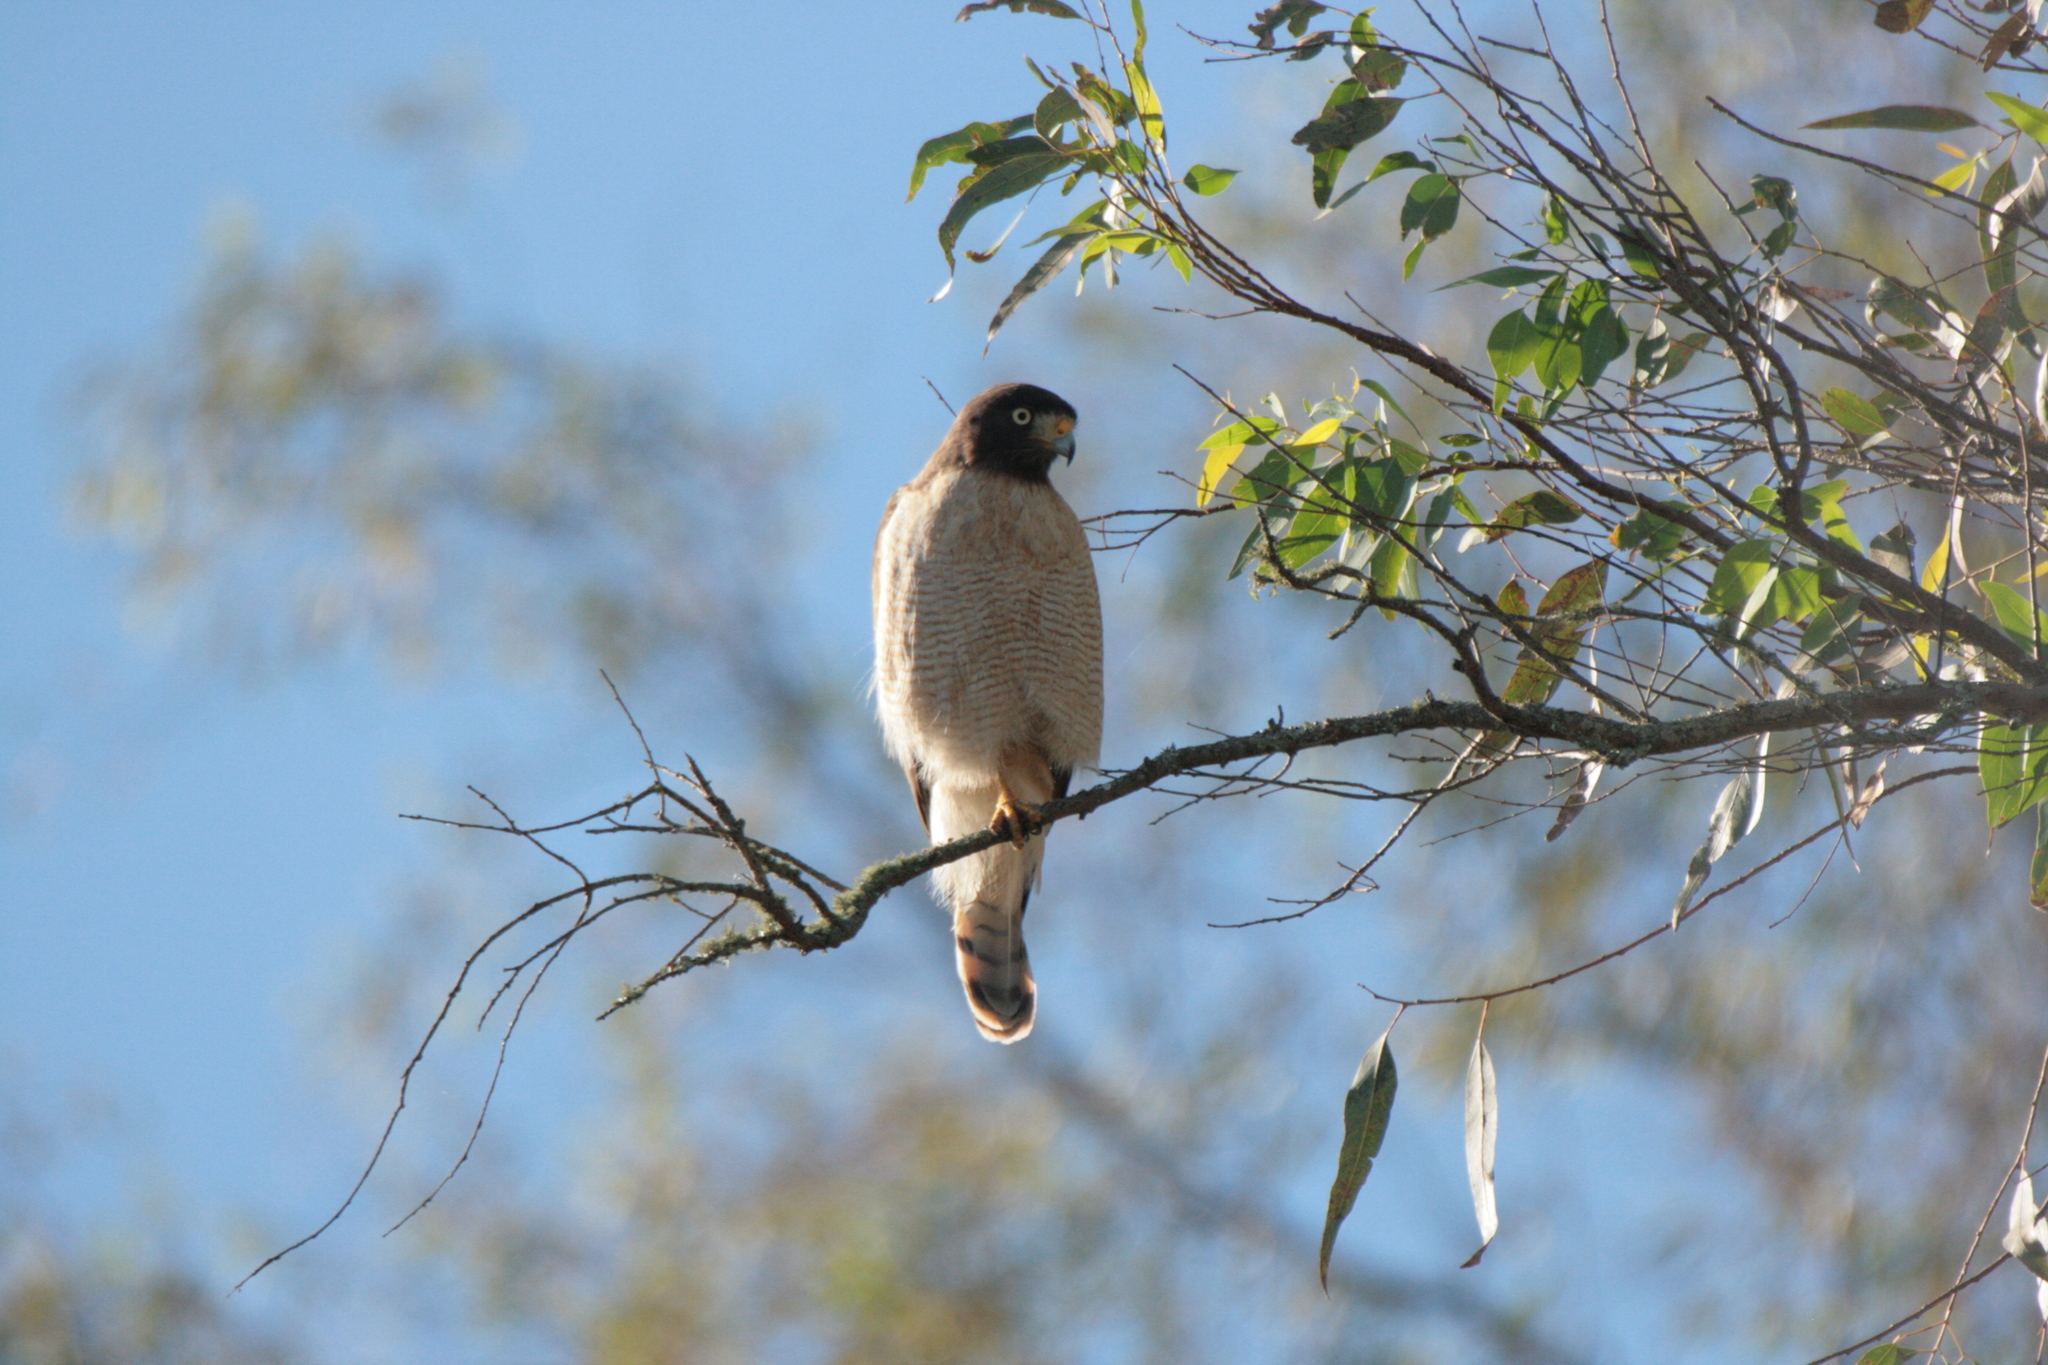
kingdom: Animalia
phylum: Chordata
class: Aves
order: Accipitriformes
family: Accipitridae
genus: Rupornis
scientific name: Rupornis magnirostris
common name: Roadside hawk
